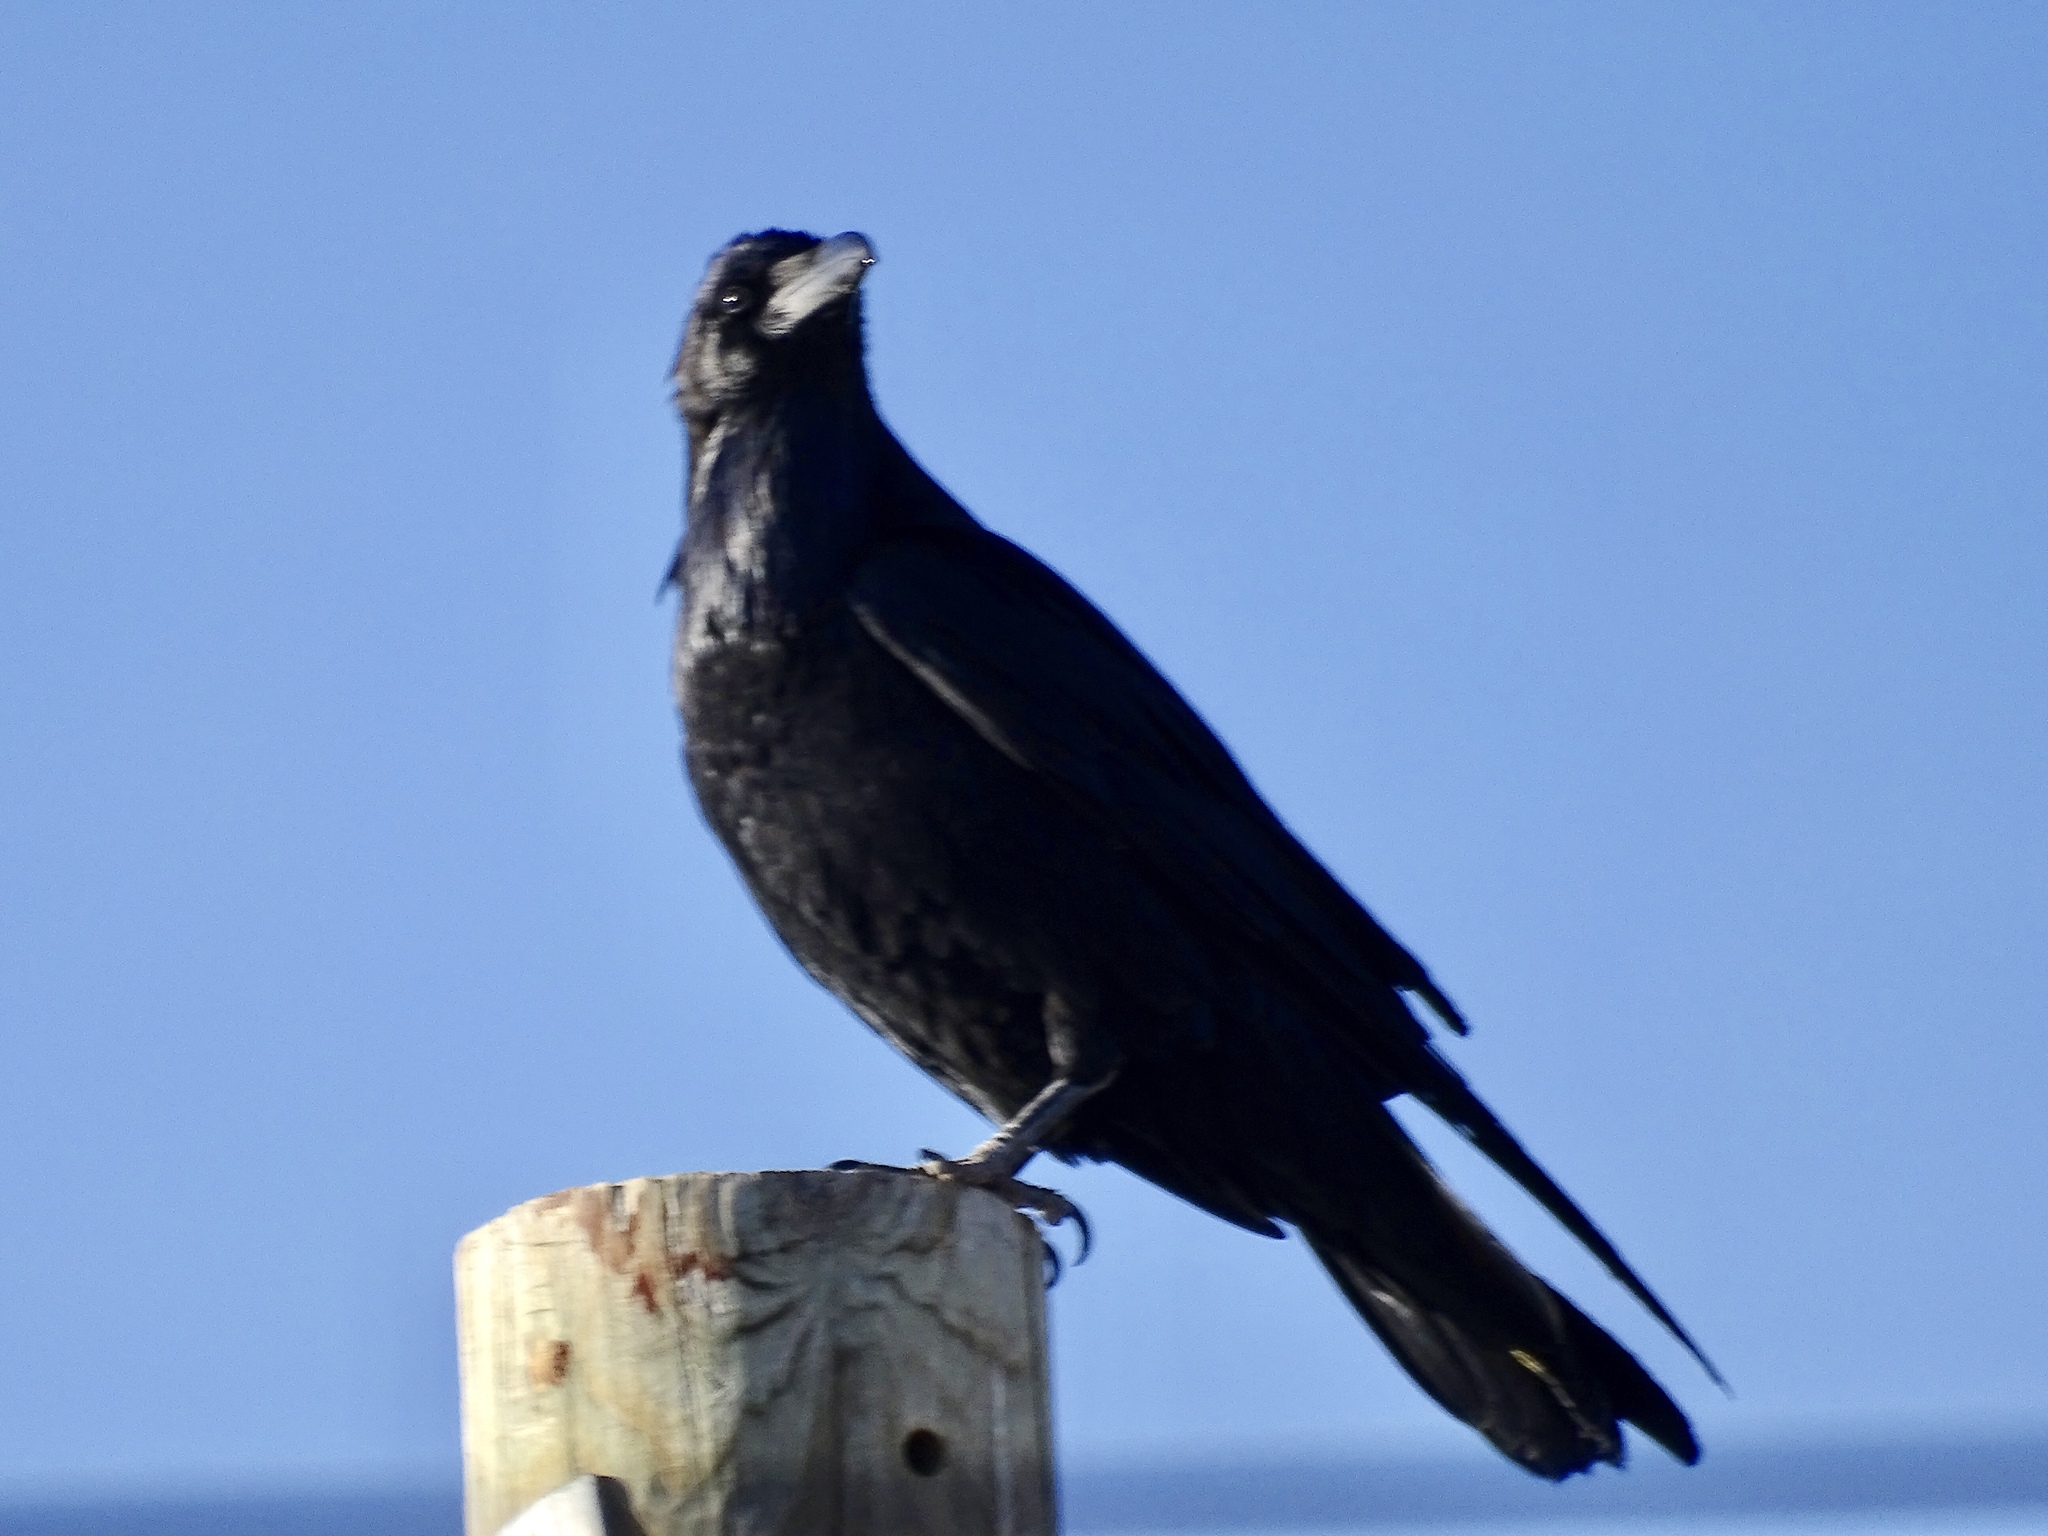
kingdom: Animalia
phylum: Chordata
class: Aves
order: Passeriformes
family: Corvidae
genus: Corvus
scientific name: Corvus cryptoleucus
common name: Chihuahuan raven
